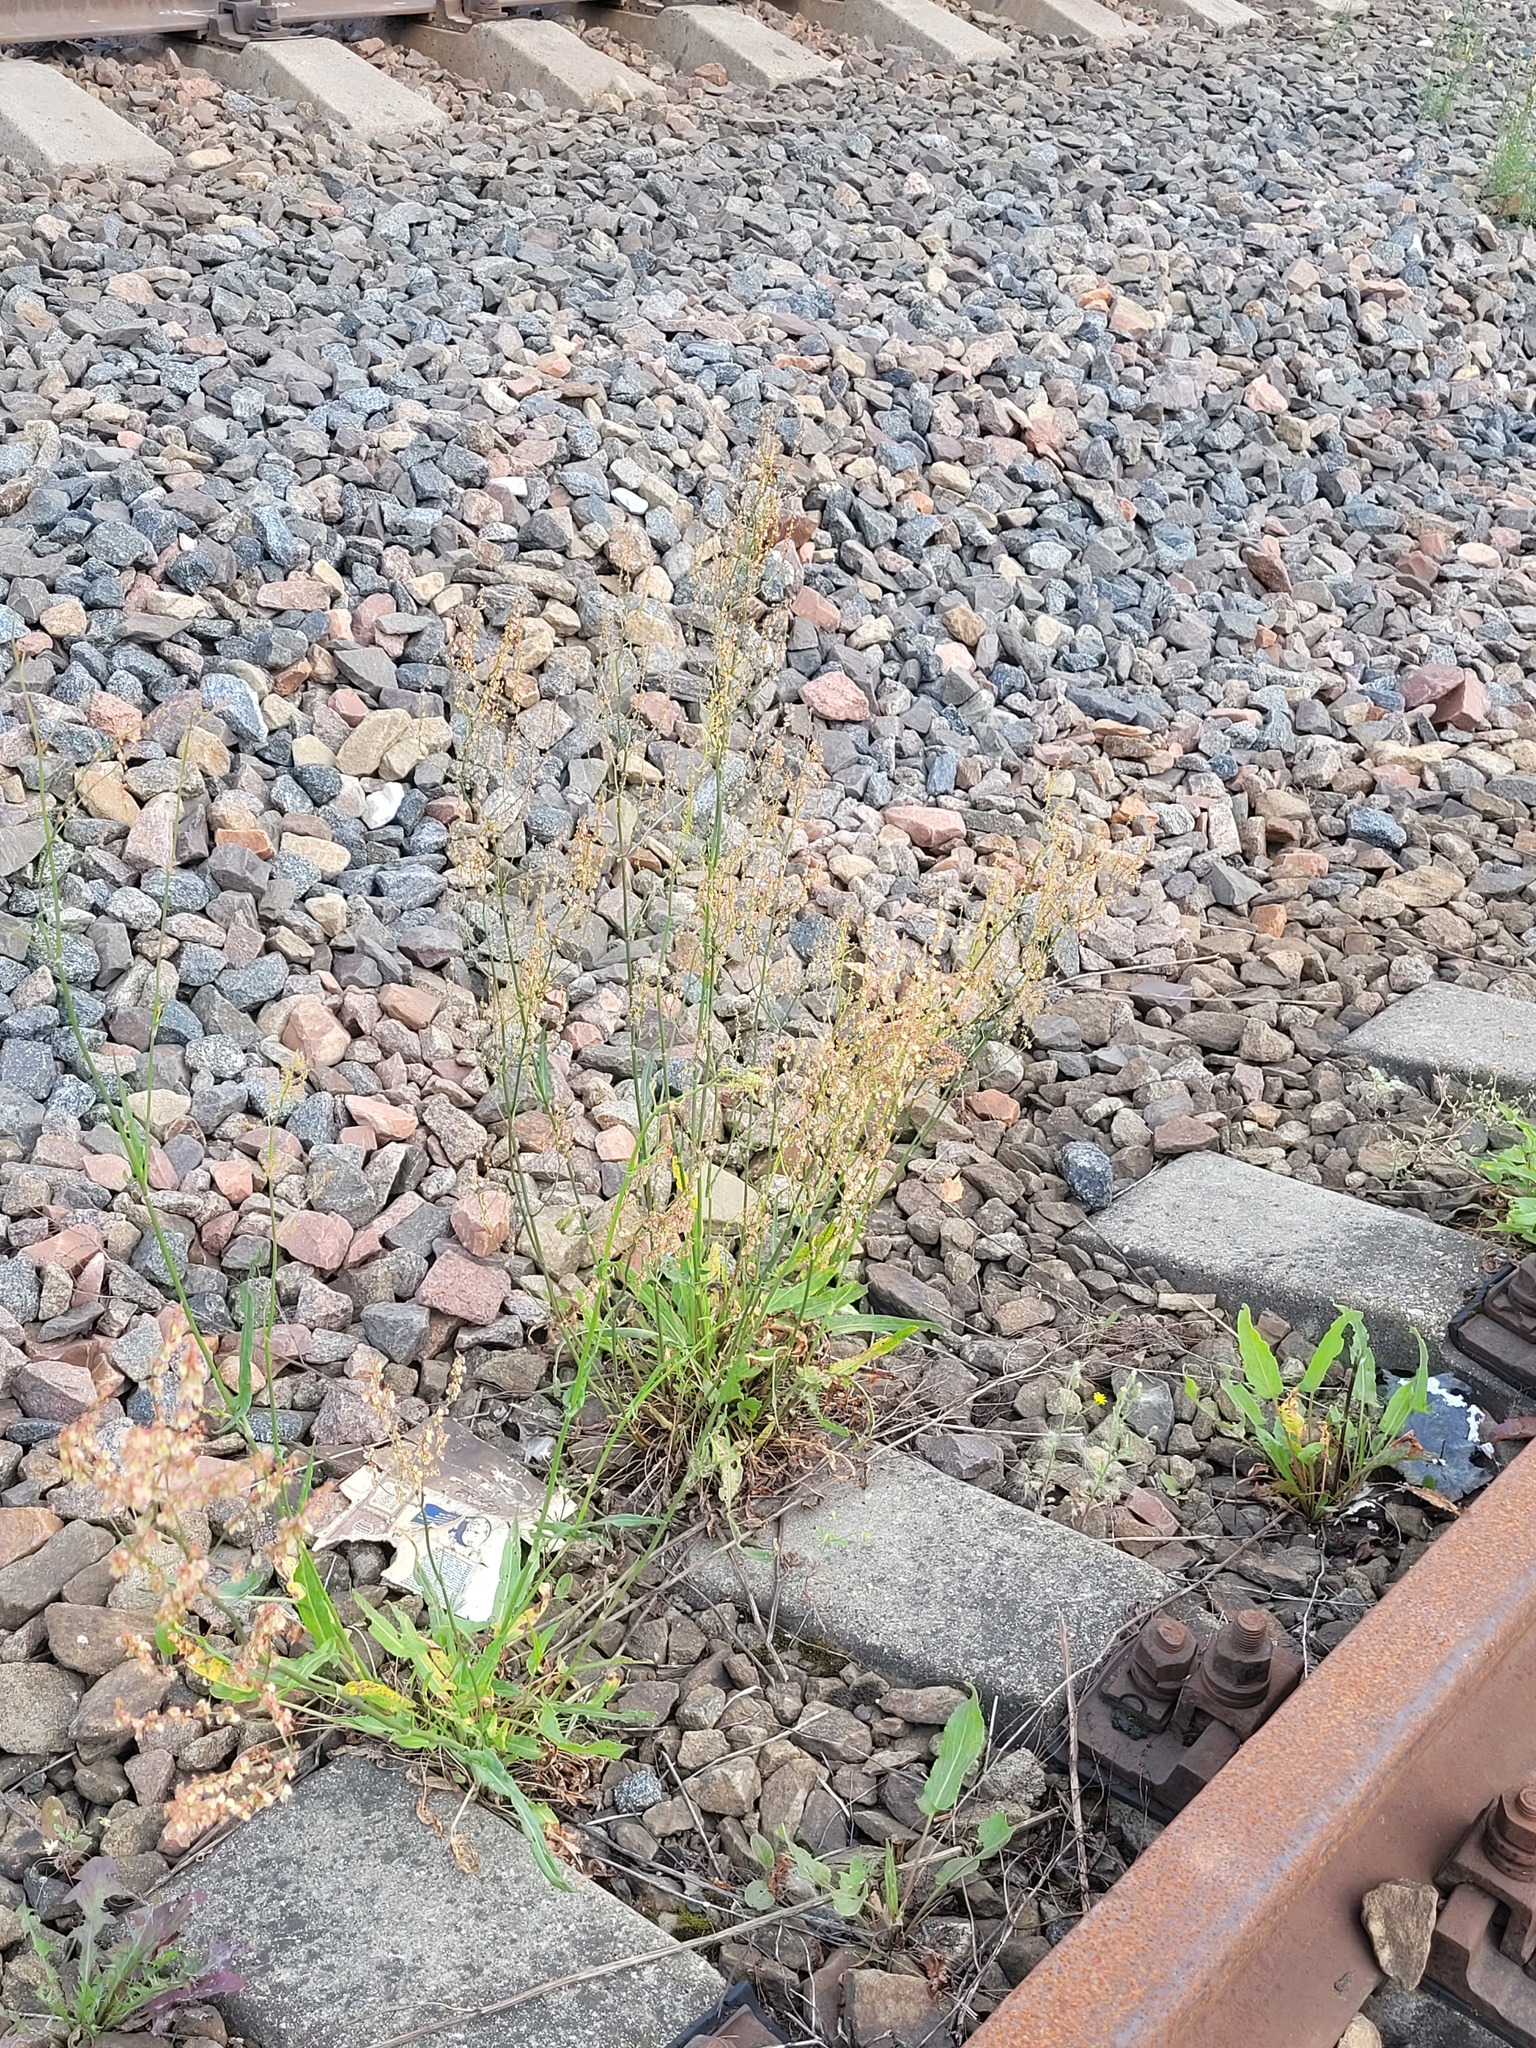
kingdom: Plantae
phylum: Tracheophyta
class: Magnoliopsida
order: Caryophyllales
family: Polygonaceae
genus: Rumex
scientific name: Rumex thyrsiflorus
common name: Garden sorrel
